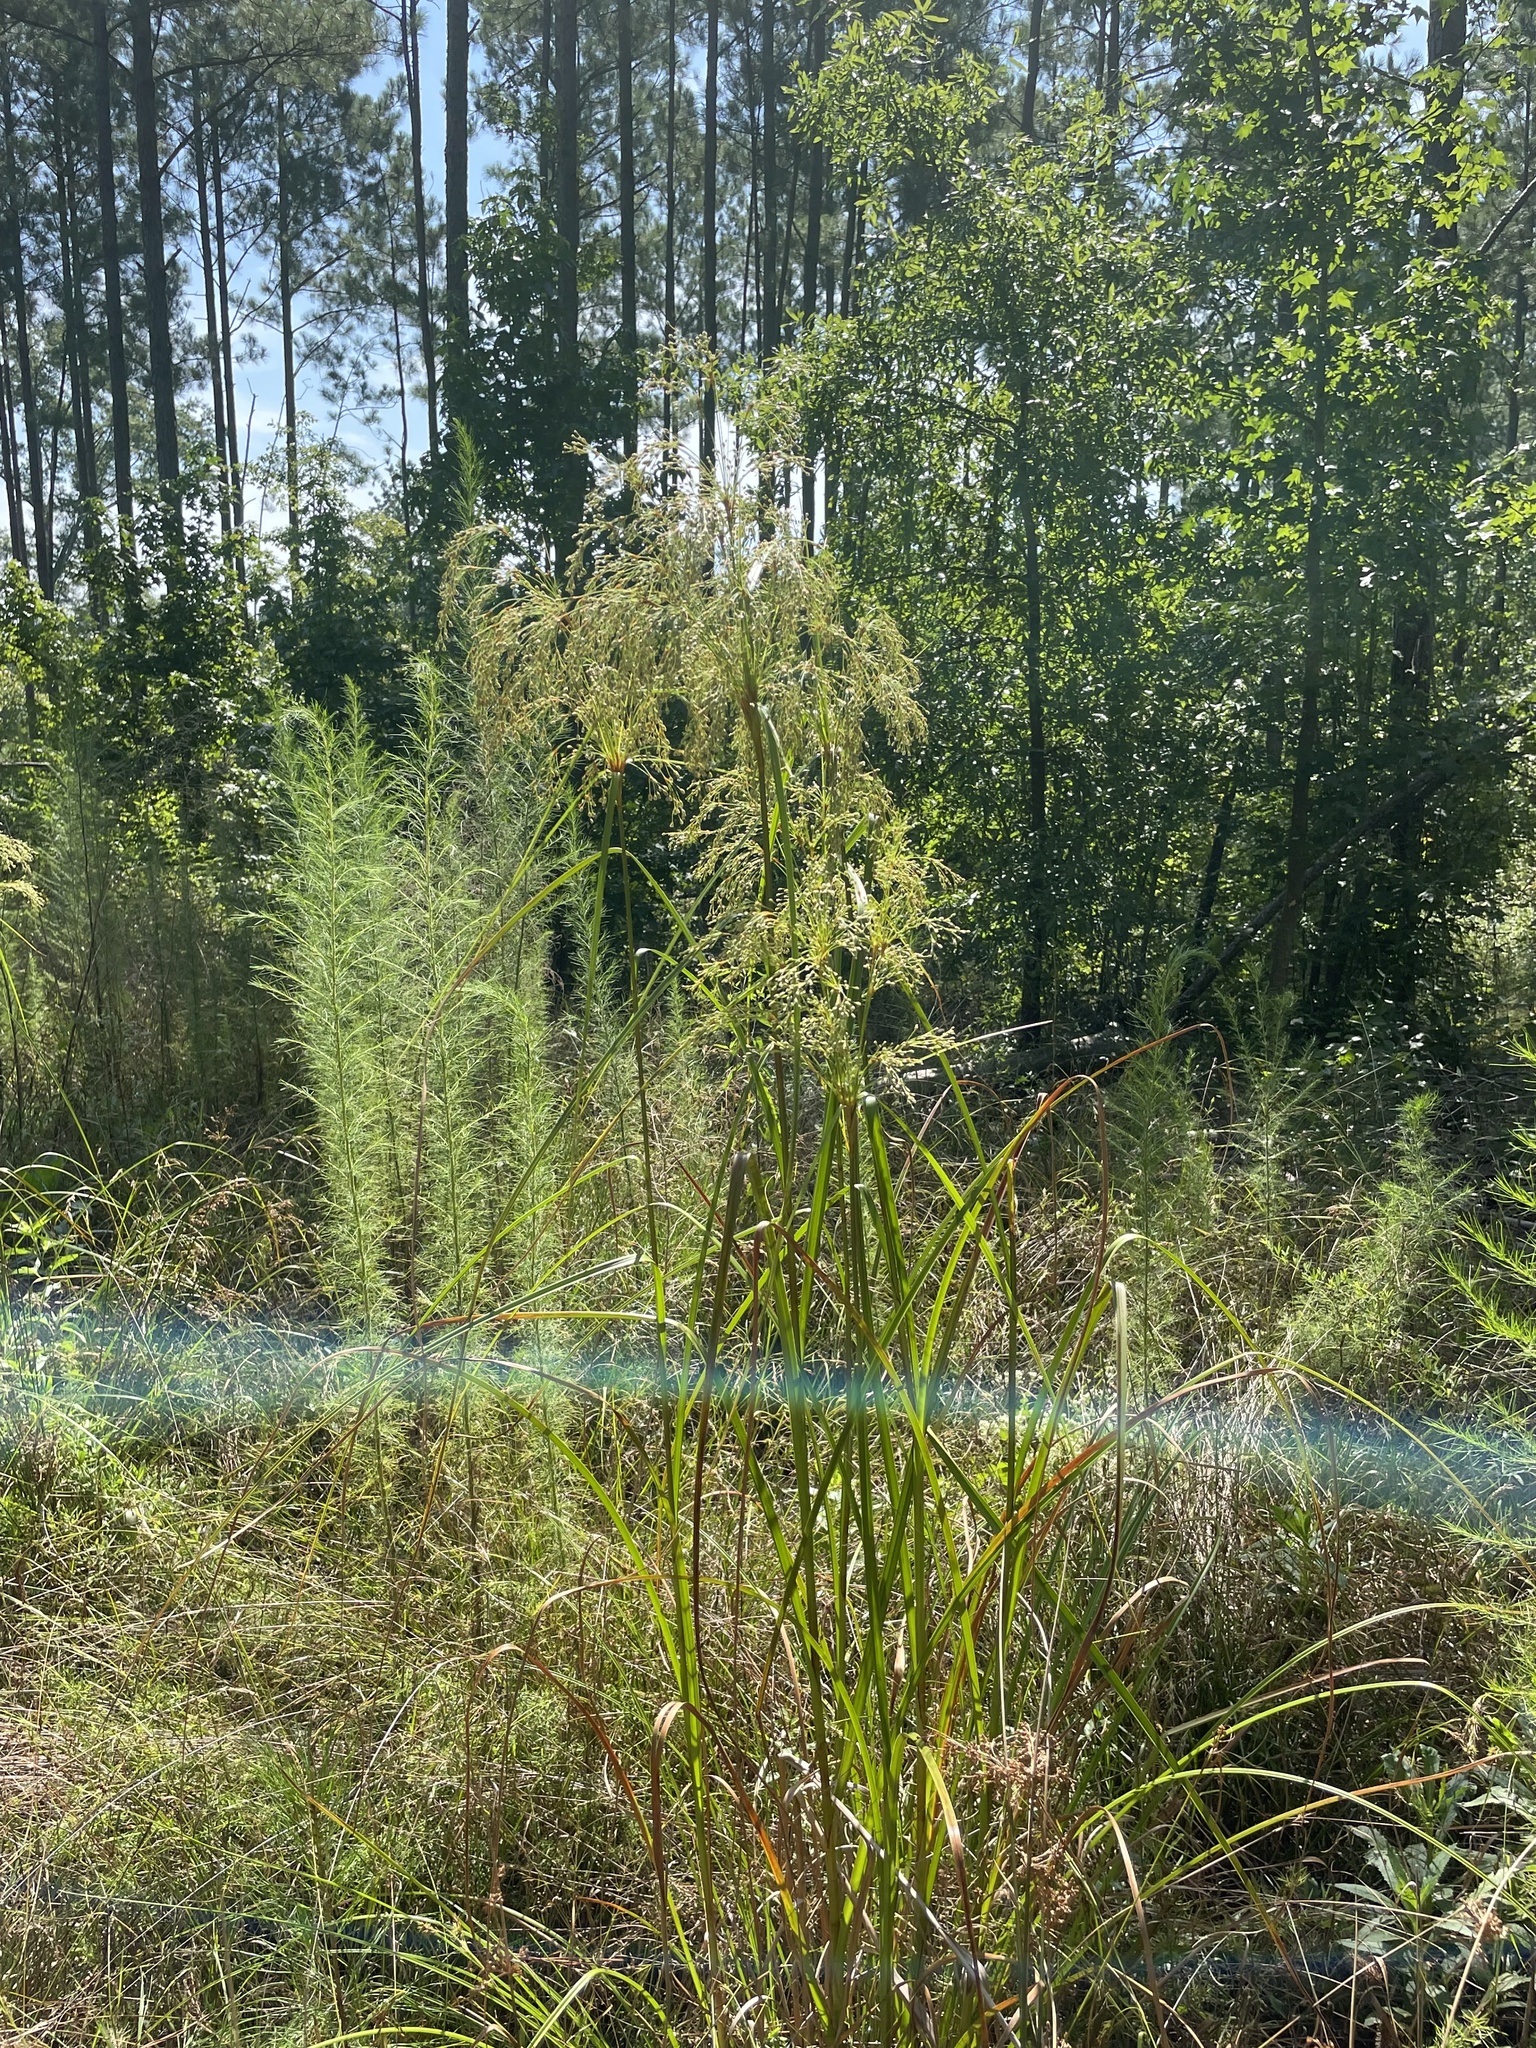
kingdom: Plantae
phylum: Tracheophyta
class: Liliopsida
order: Poales
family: Cyperaceae
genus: Scirpus
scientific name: Scirpus cyperinus
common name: Black-sheathed bulrush
